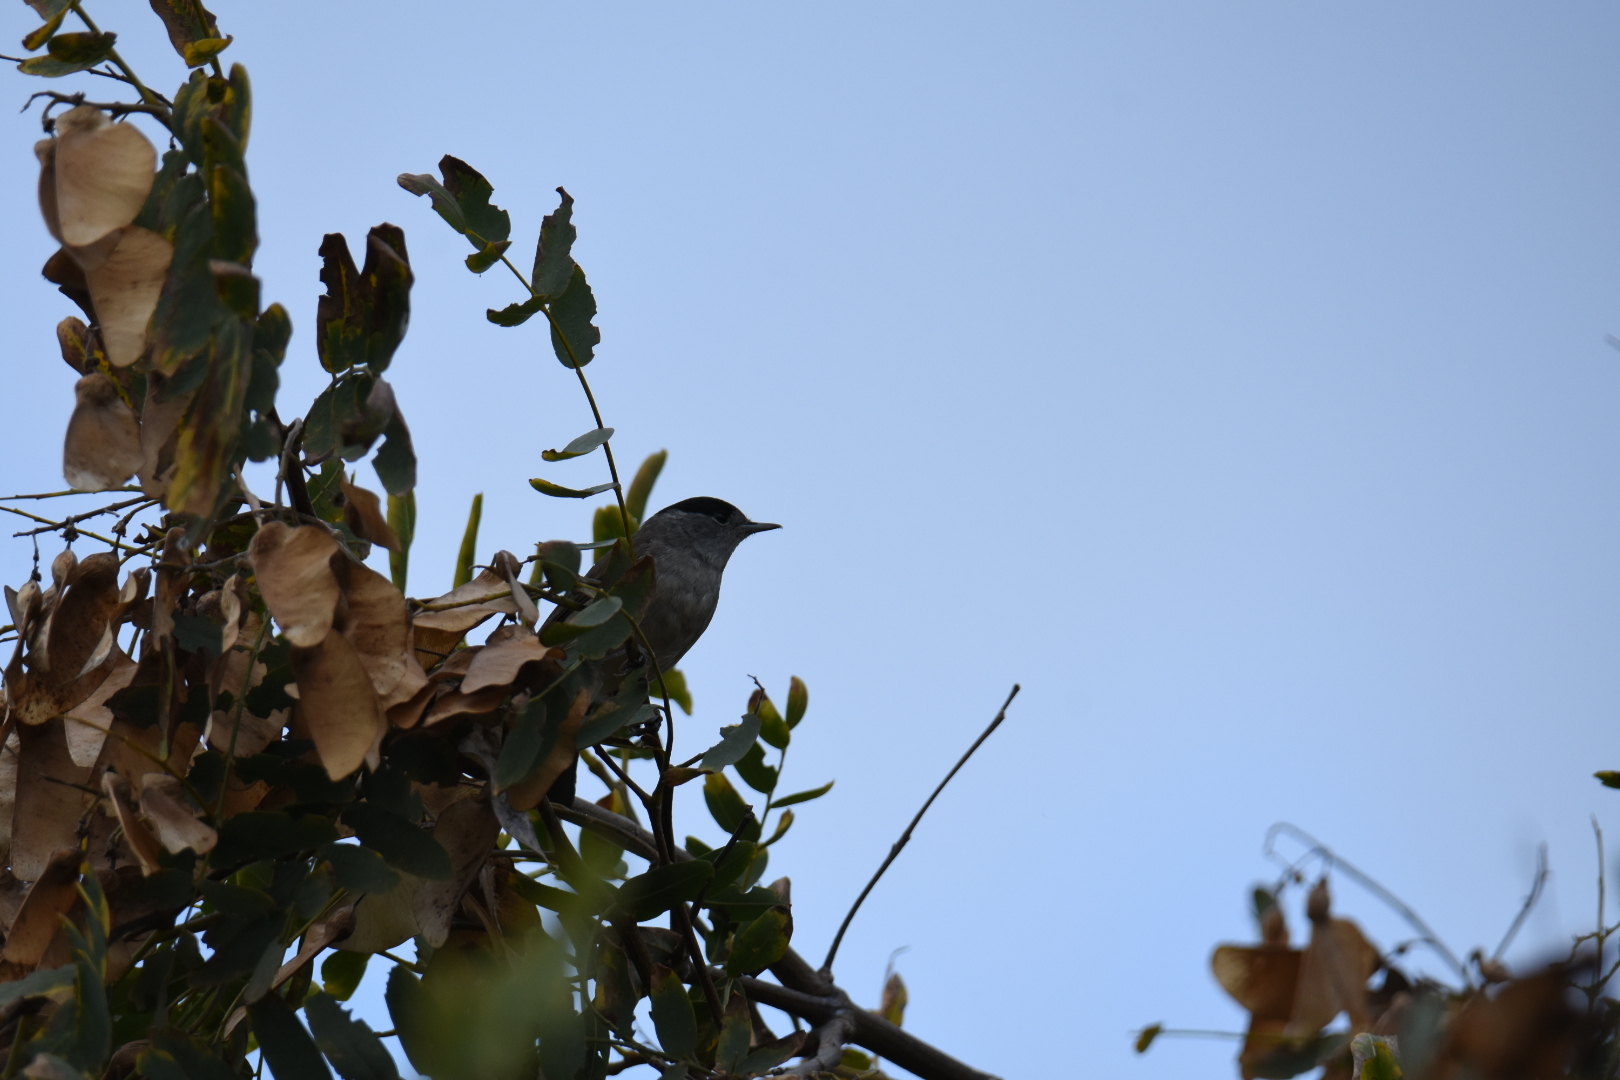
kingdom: Animalia
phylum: Chordata
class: Aves
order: Passeriformes
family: Sylviidae
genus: Sylvia
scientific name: Sylvia atricapilla
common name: Eurasian blackcap
